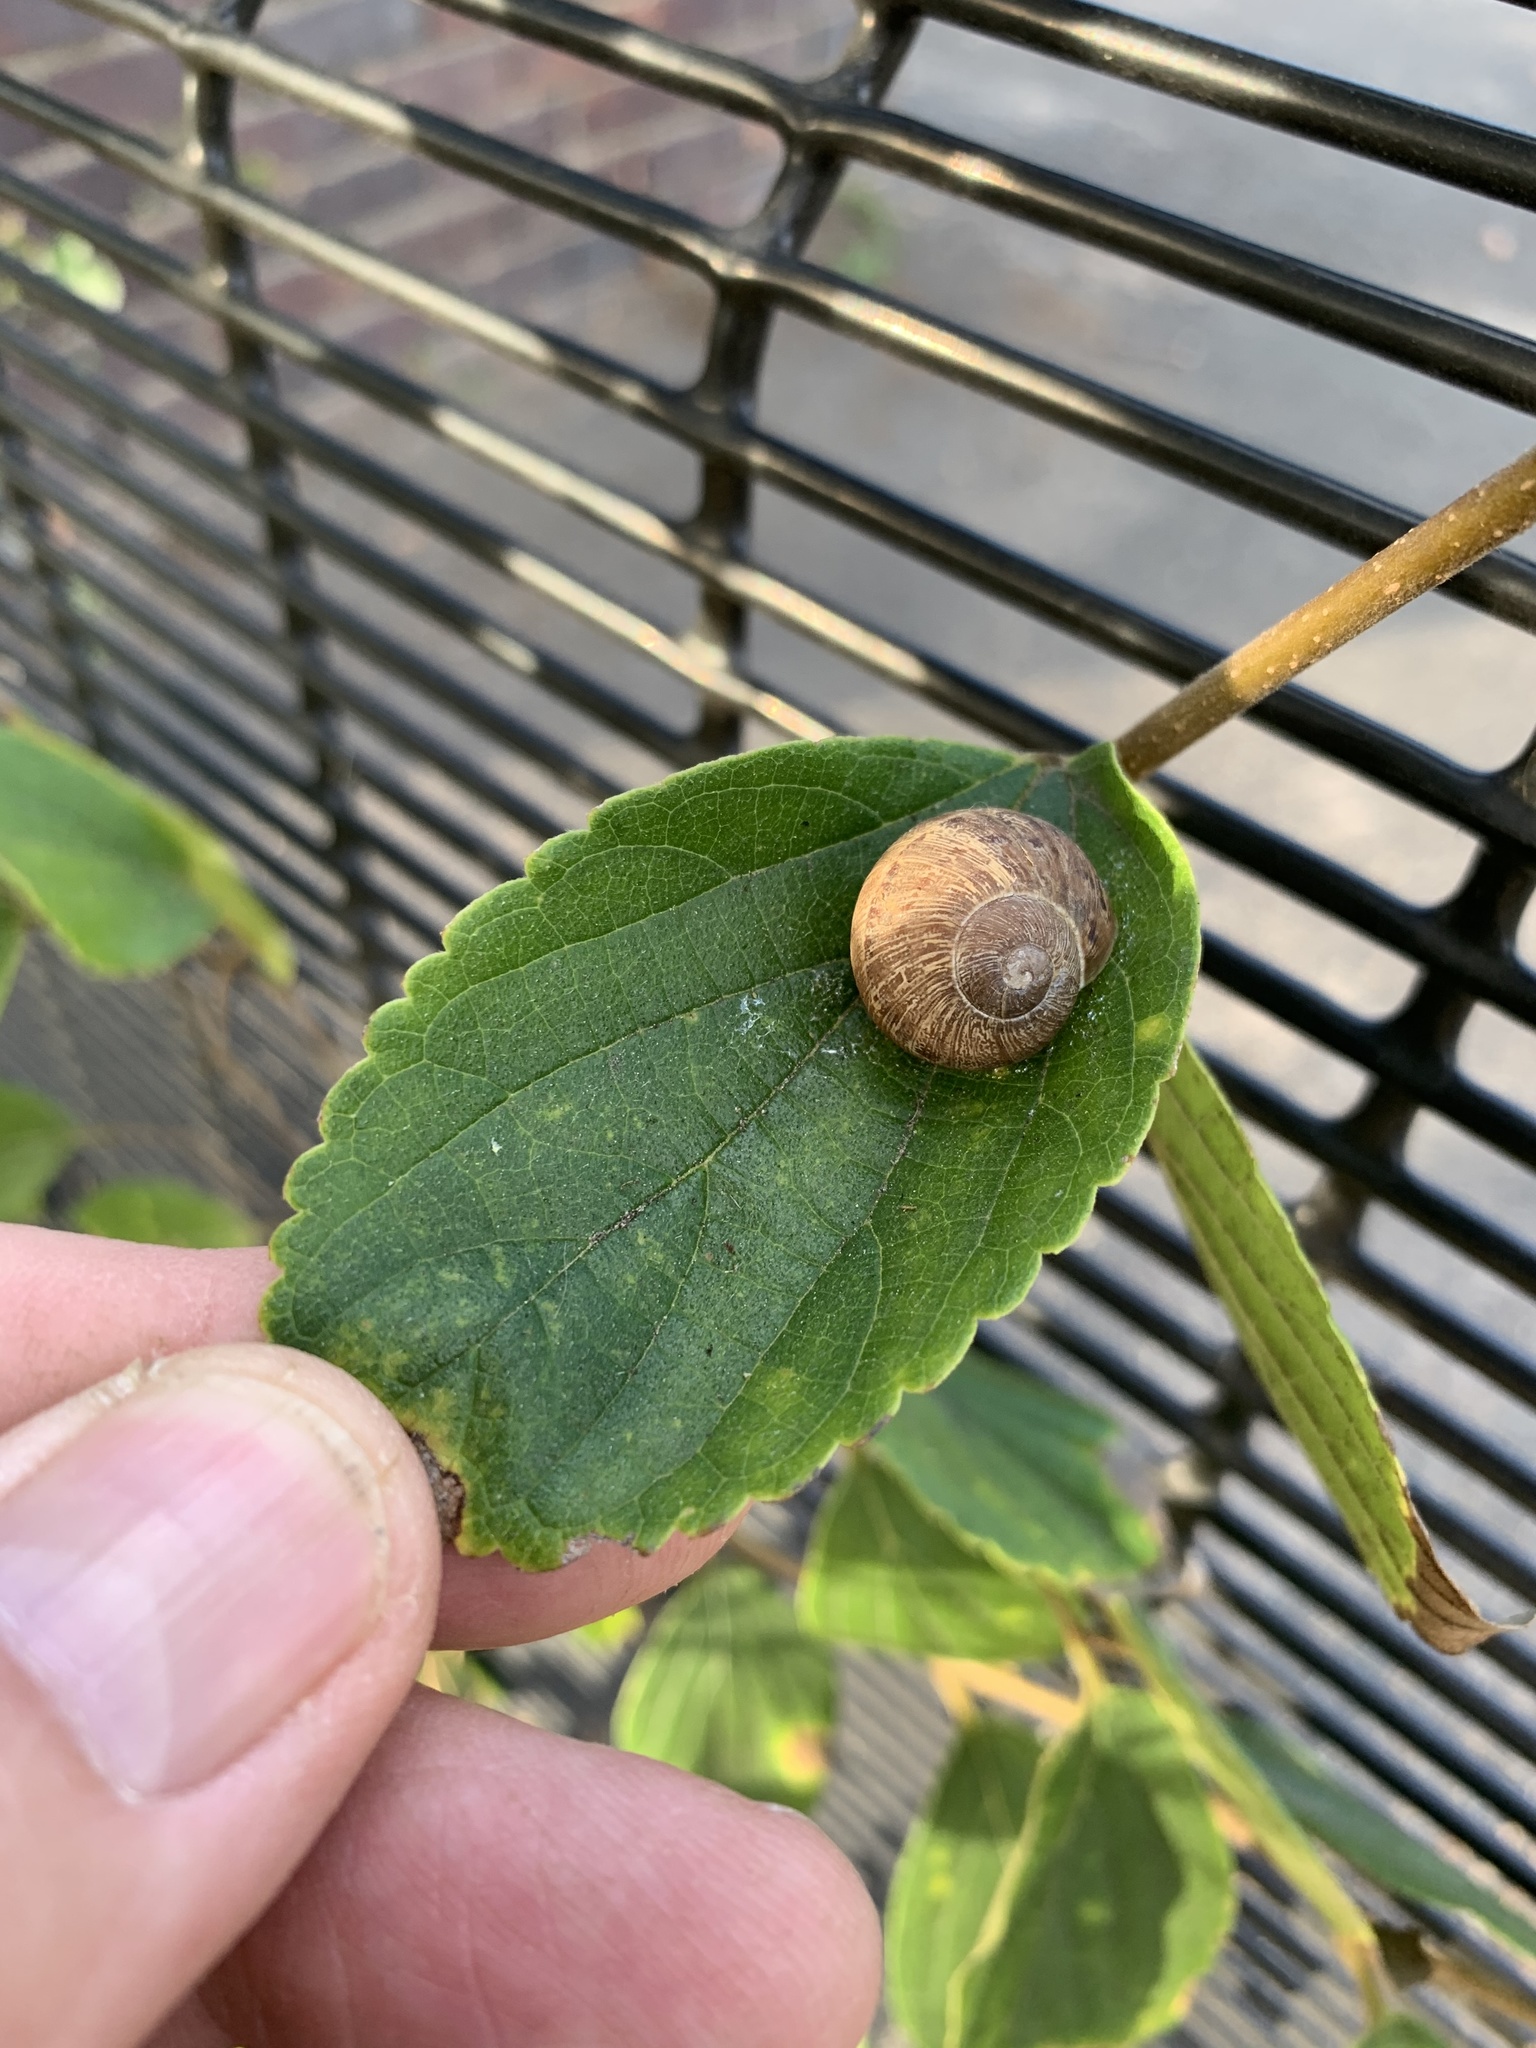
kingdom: Animalia
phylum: Mollusca
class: Gastropoda
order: Stylommatophora
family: Helicidae
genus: Cornu
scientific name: Cornu aspersum
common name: Brown garden snail
